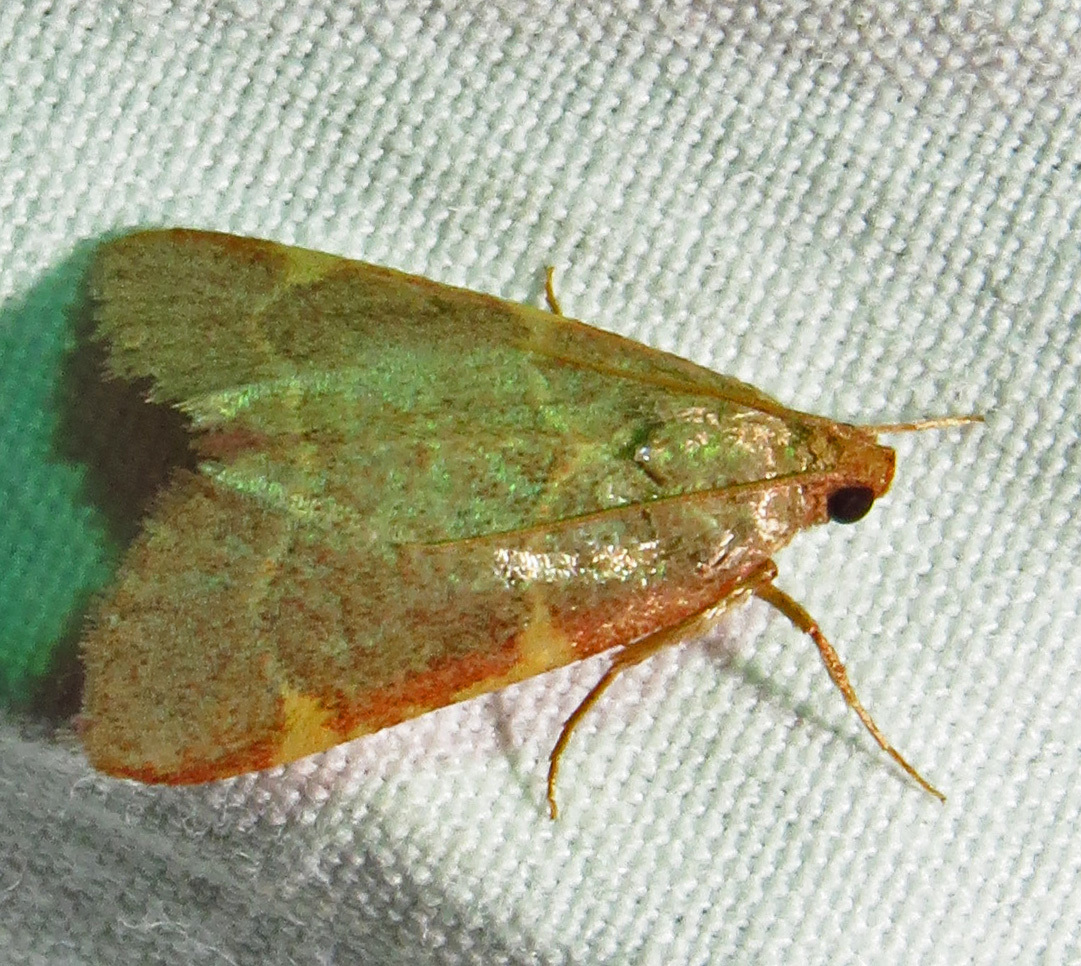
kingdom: Animalia
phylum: Arthropoda
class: Insecta
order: Lepidoptera
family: Pyralidae
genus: Hypsopygia
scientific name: Hypsopygia binodulalis
